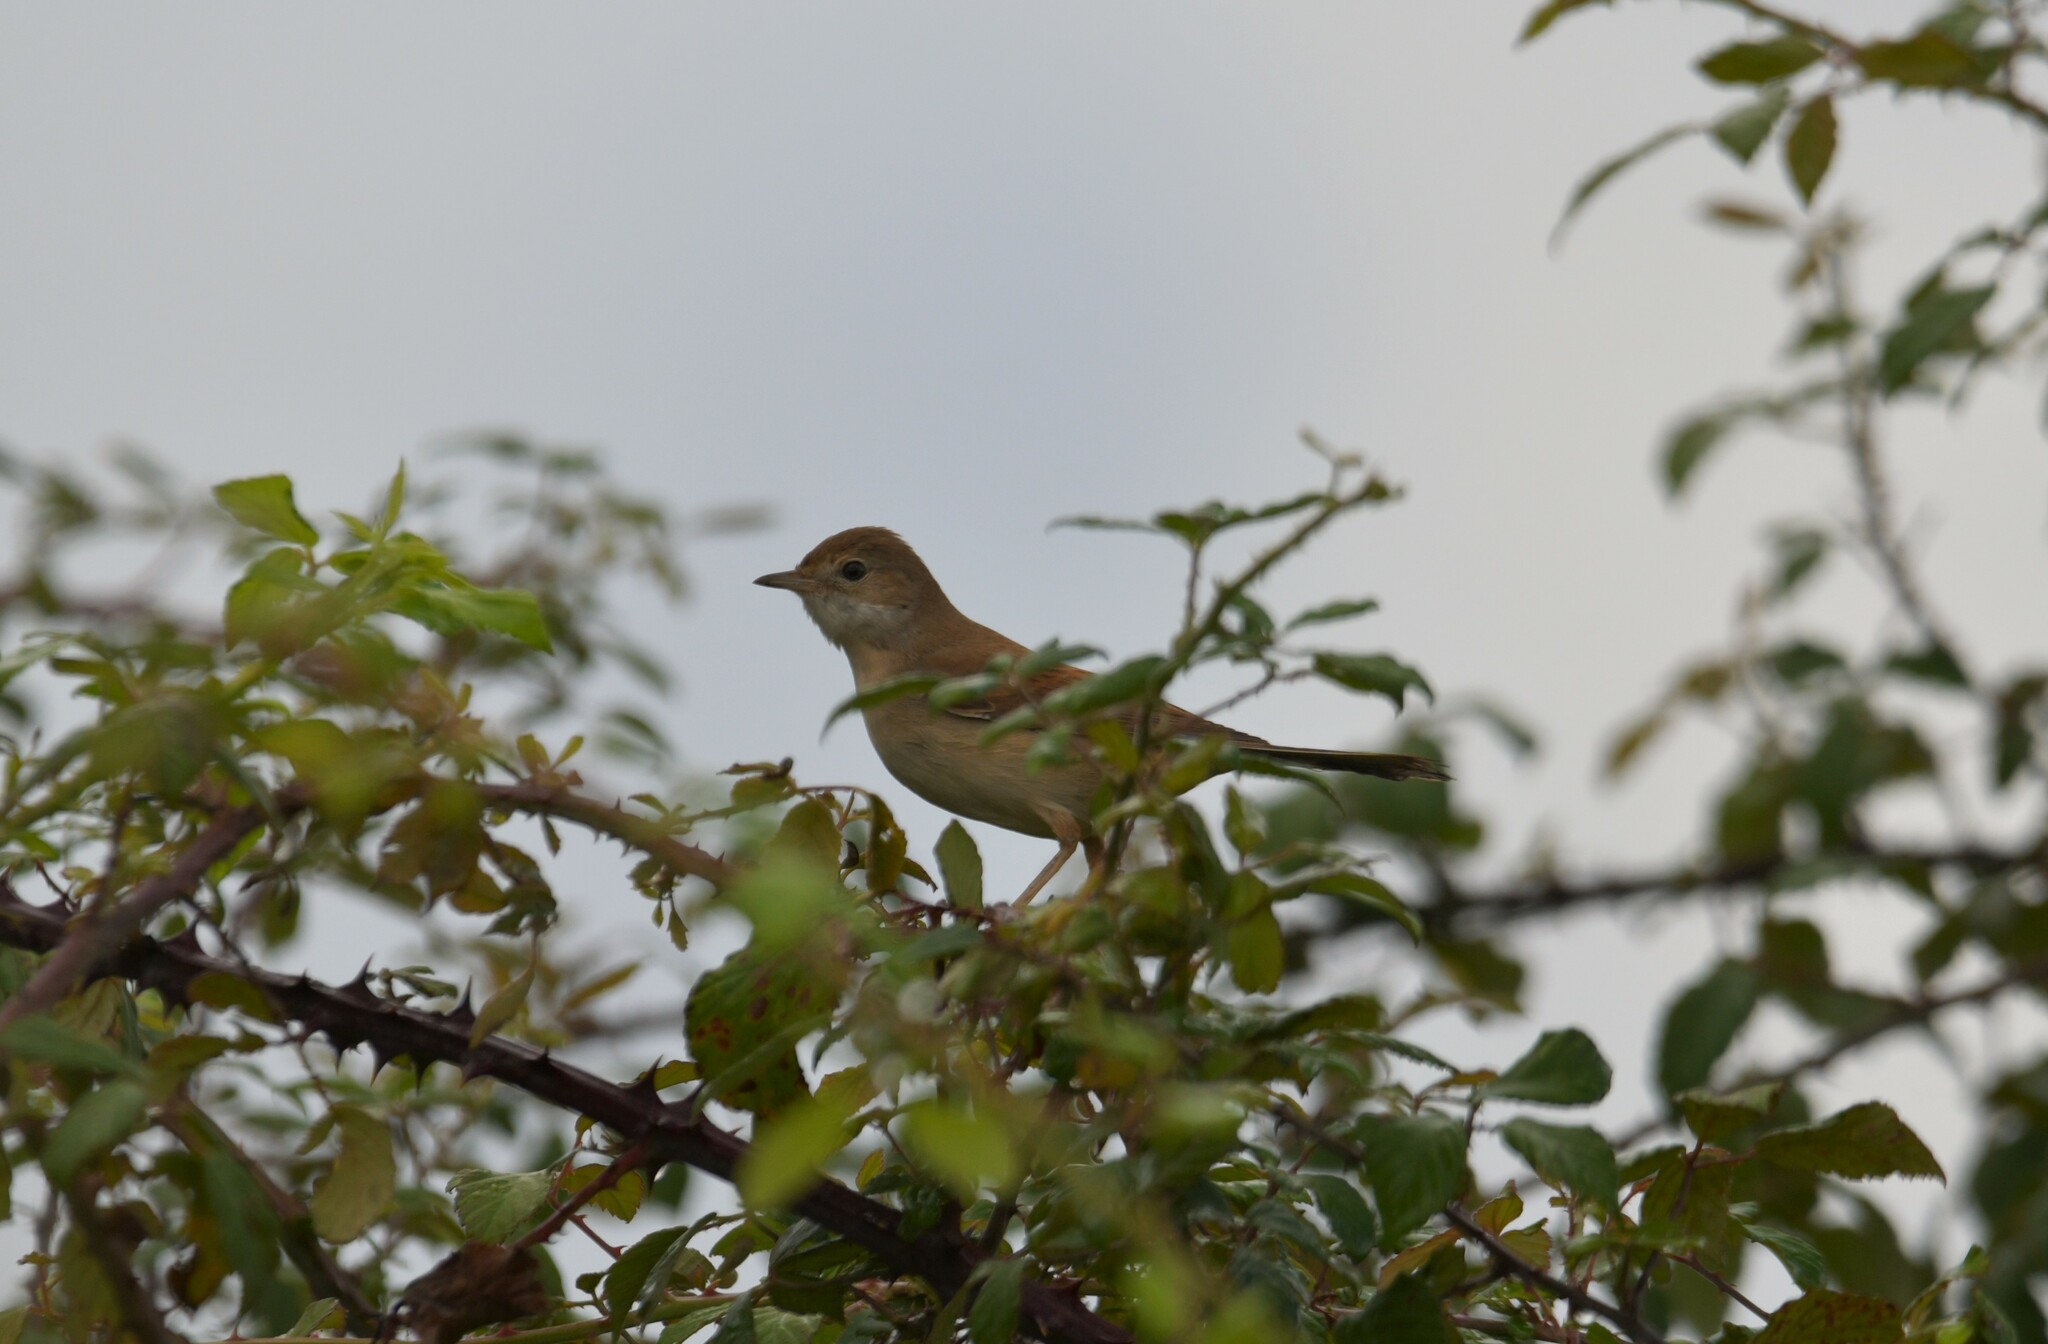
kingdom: Animalia
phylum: Chordata
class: Aves
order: Passeriformes
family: Sylviidae
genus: Sylvia
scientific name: Sylvia communis
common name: Common whitethroat
